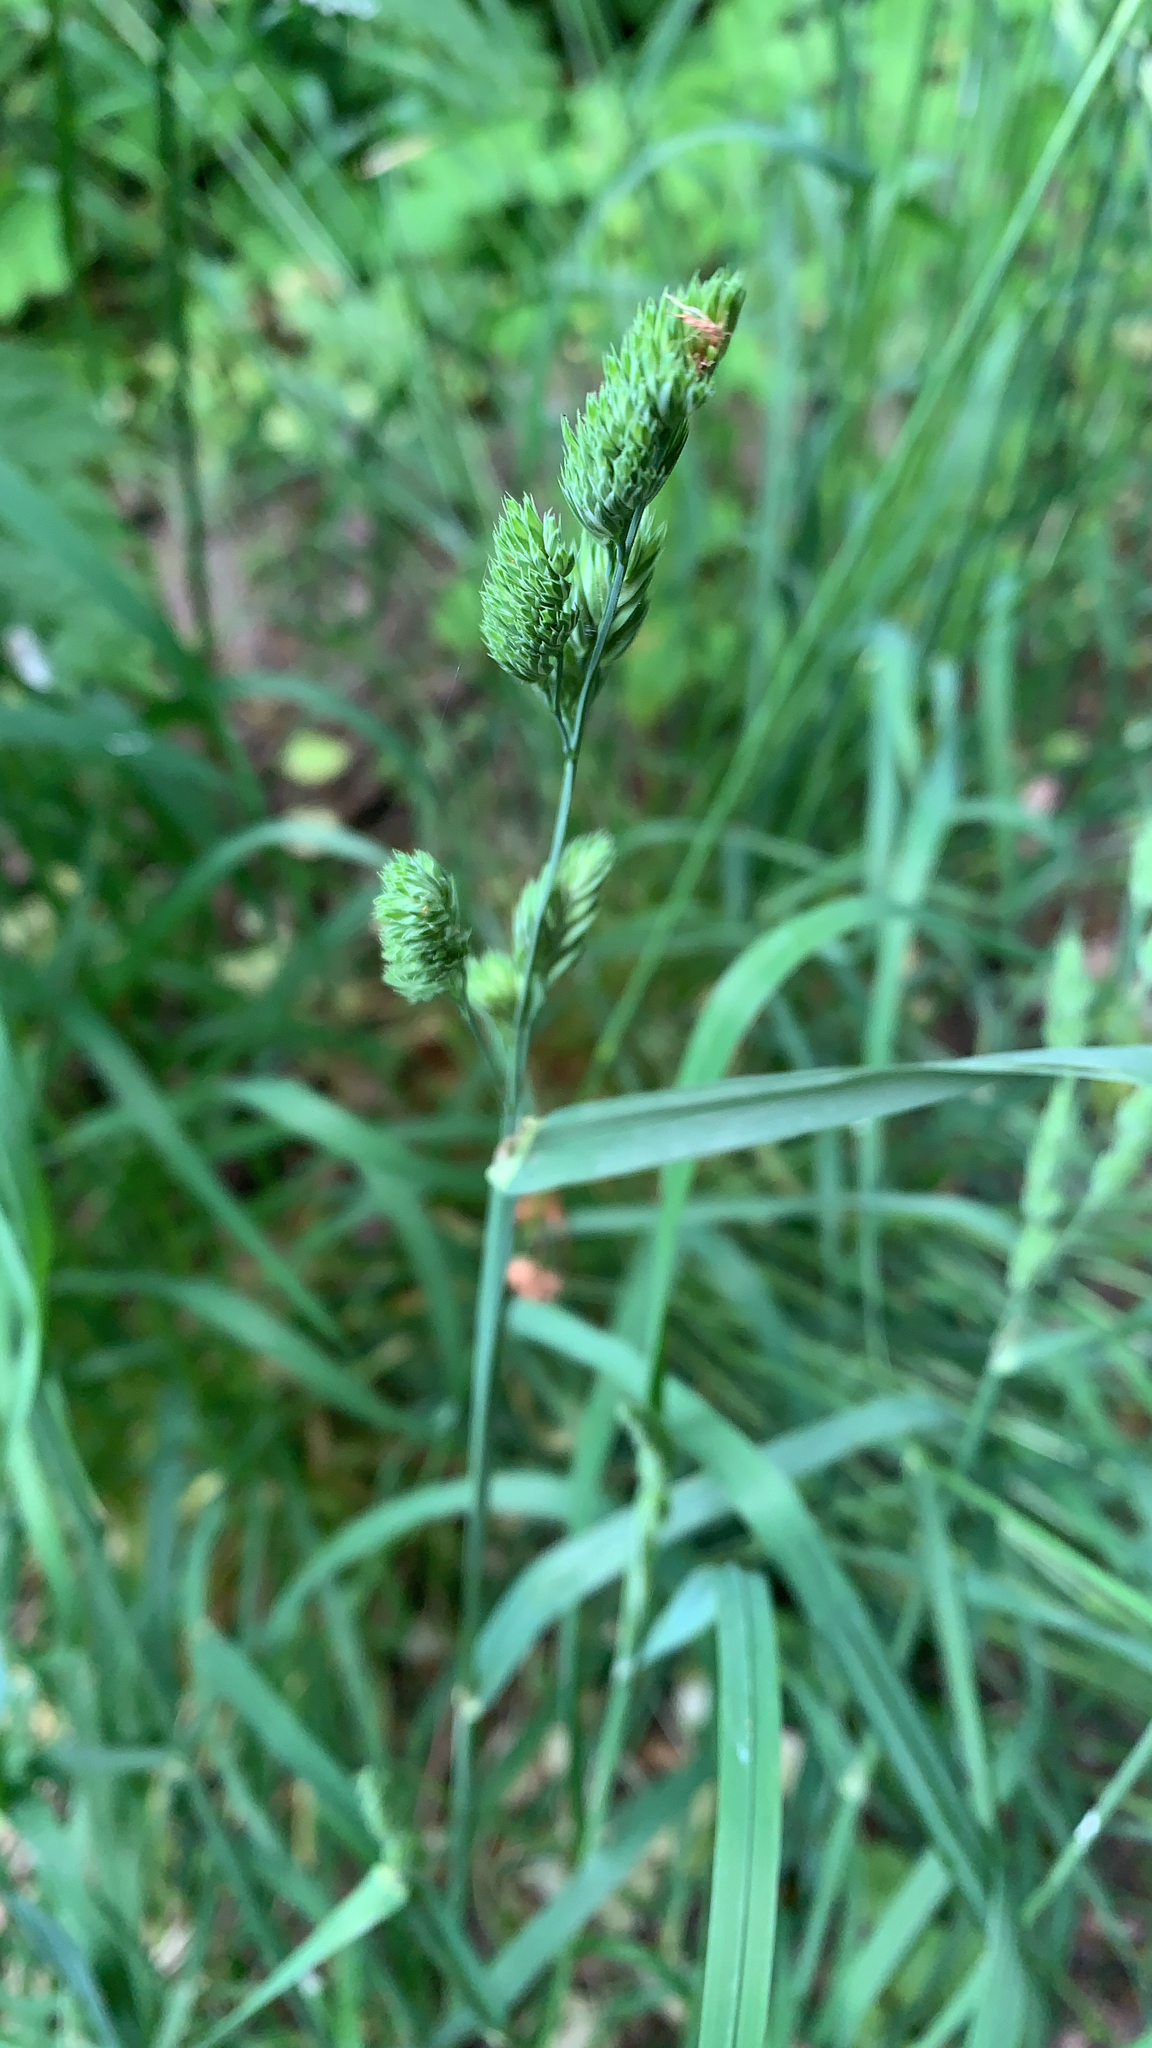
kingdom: Plantae
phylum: Tracheophyta
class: Liliopsida
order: Poales
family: Poaceae
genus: Dactylis
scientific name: Dactylis glomerata
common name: Orchardgrass
